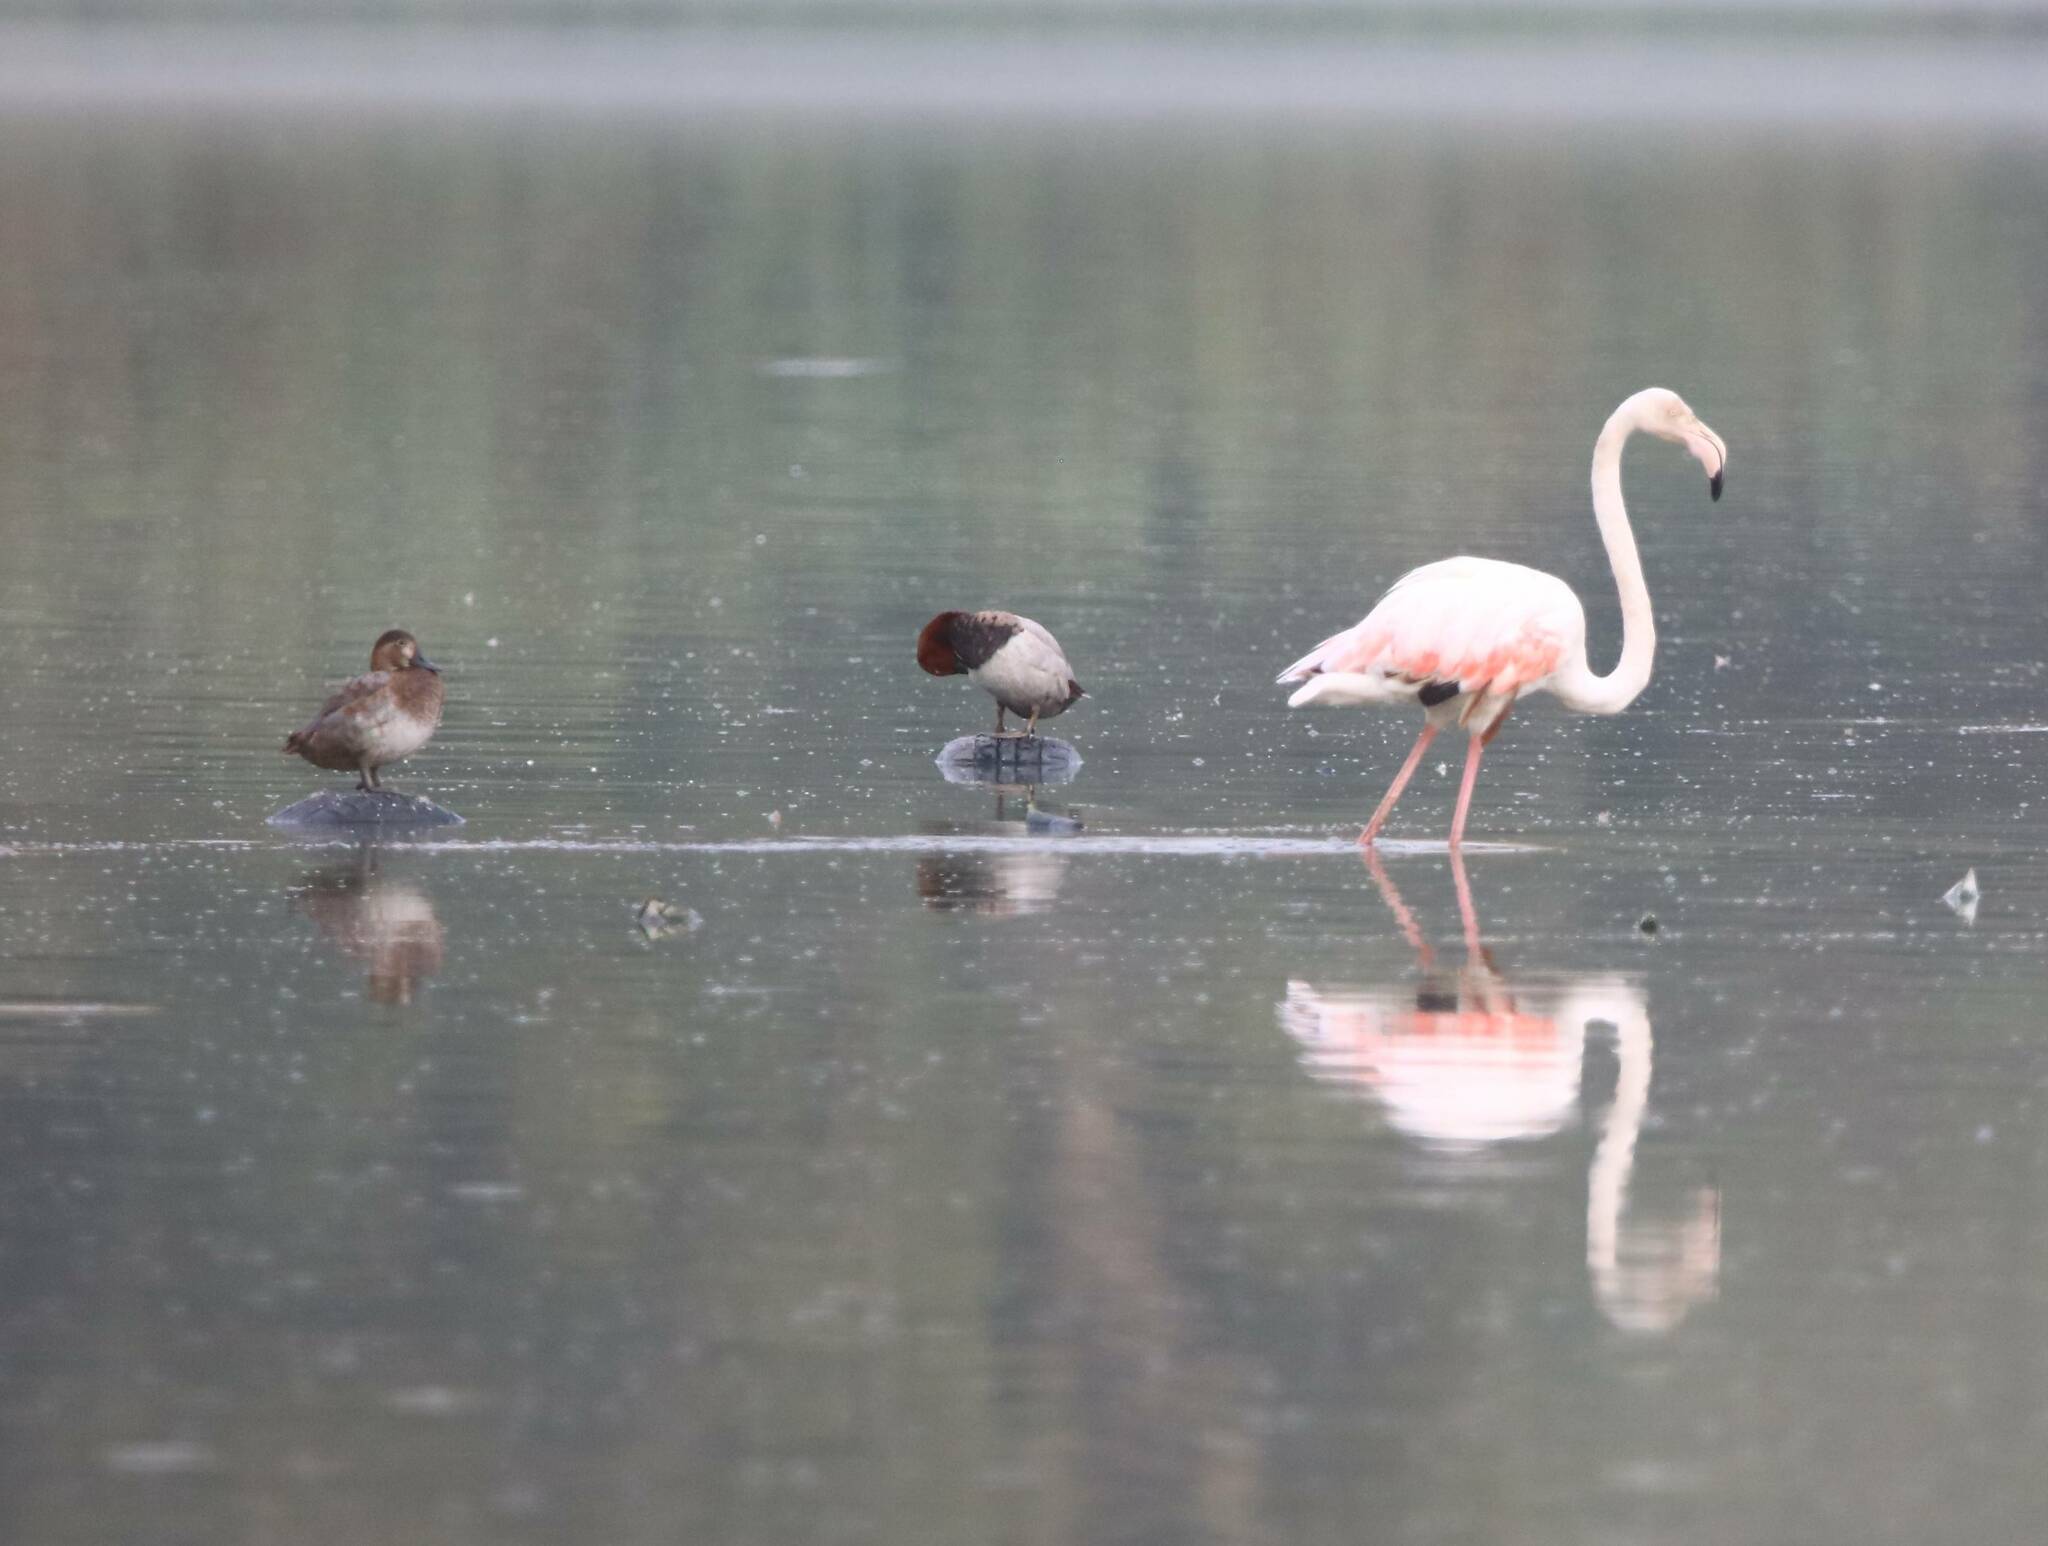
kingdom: Animalia
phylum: Chordata
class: Aves
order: Phoenicopteriformes
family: Phoenicopteridae
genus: Phoenicopterus
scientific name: Phoenicopterus roseus
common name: Greater flamingo
